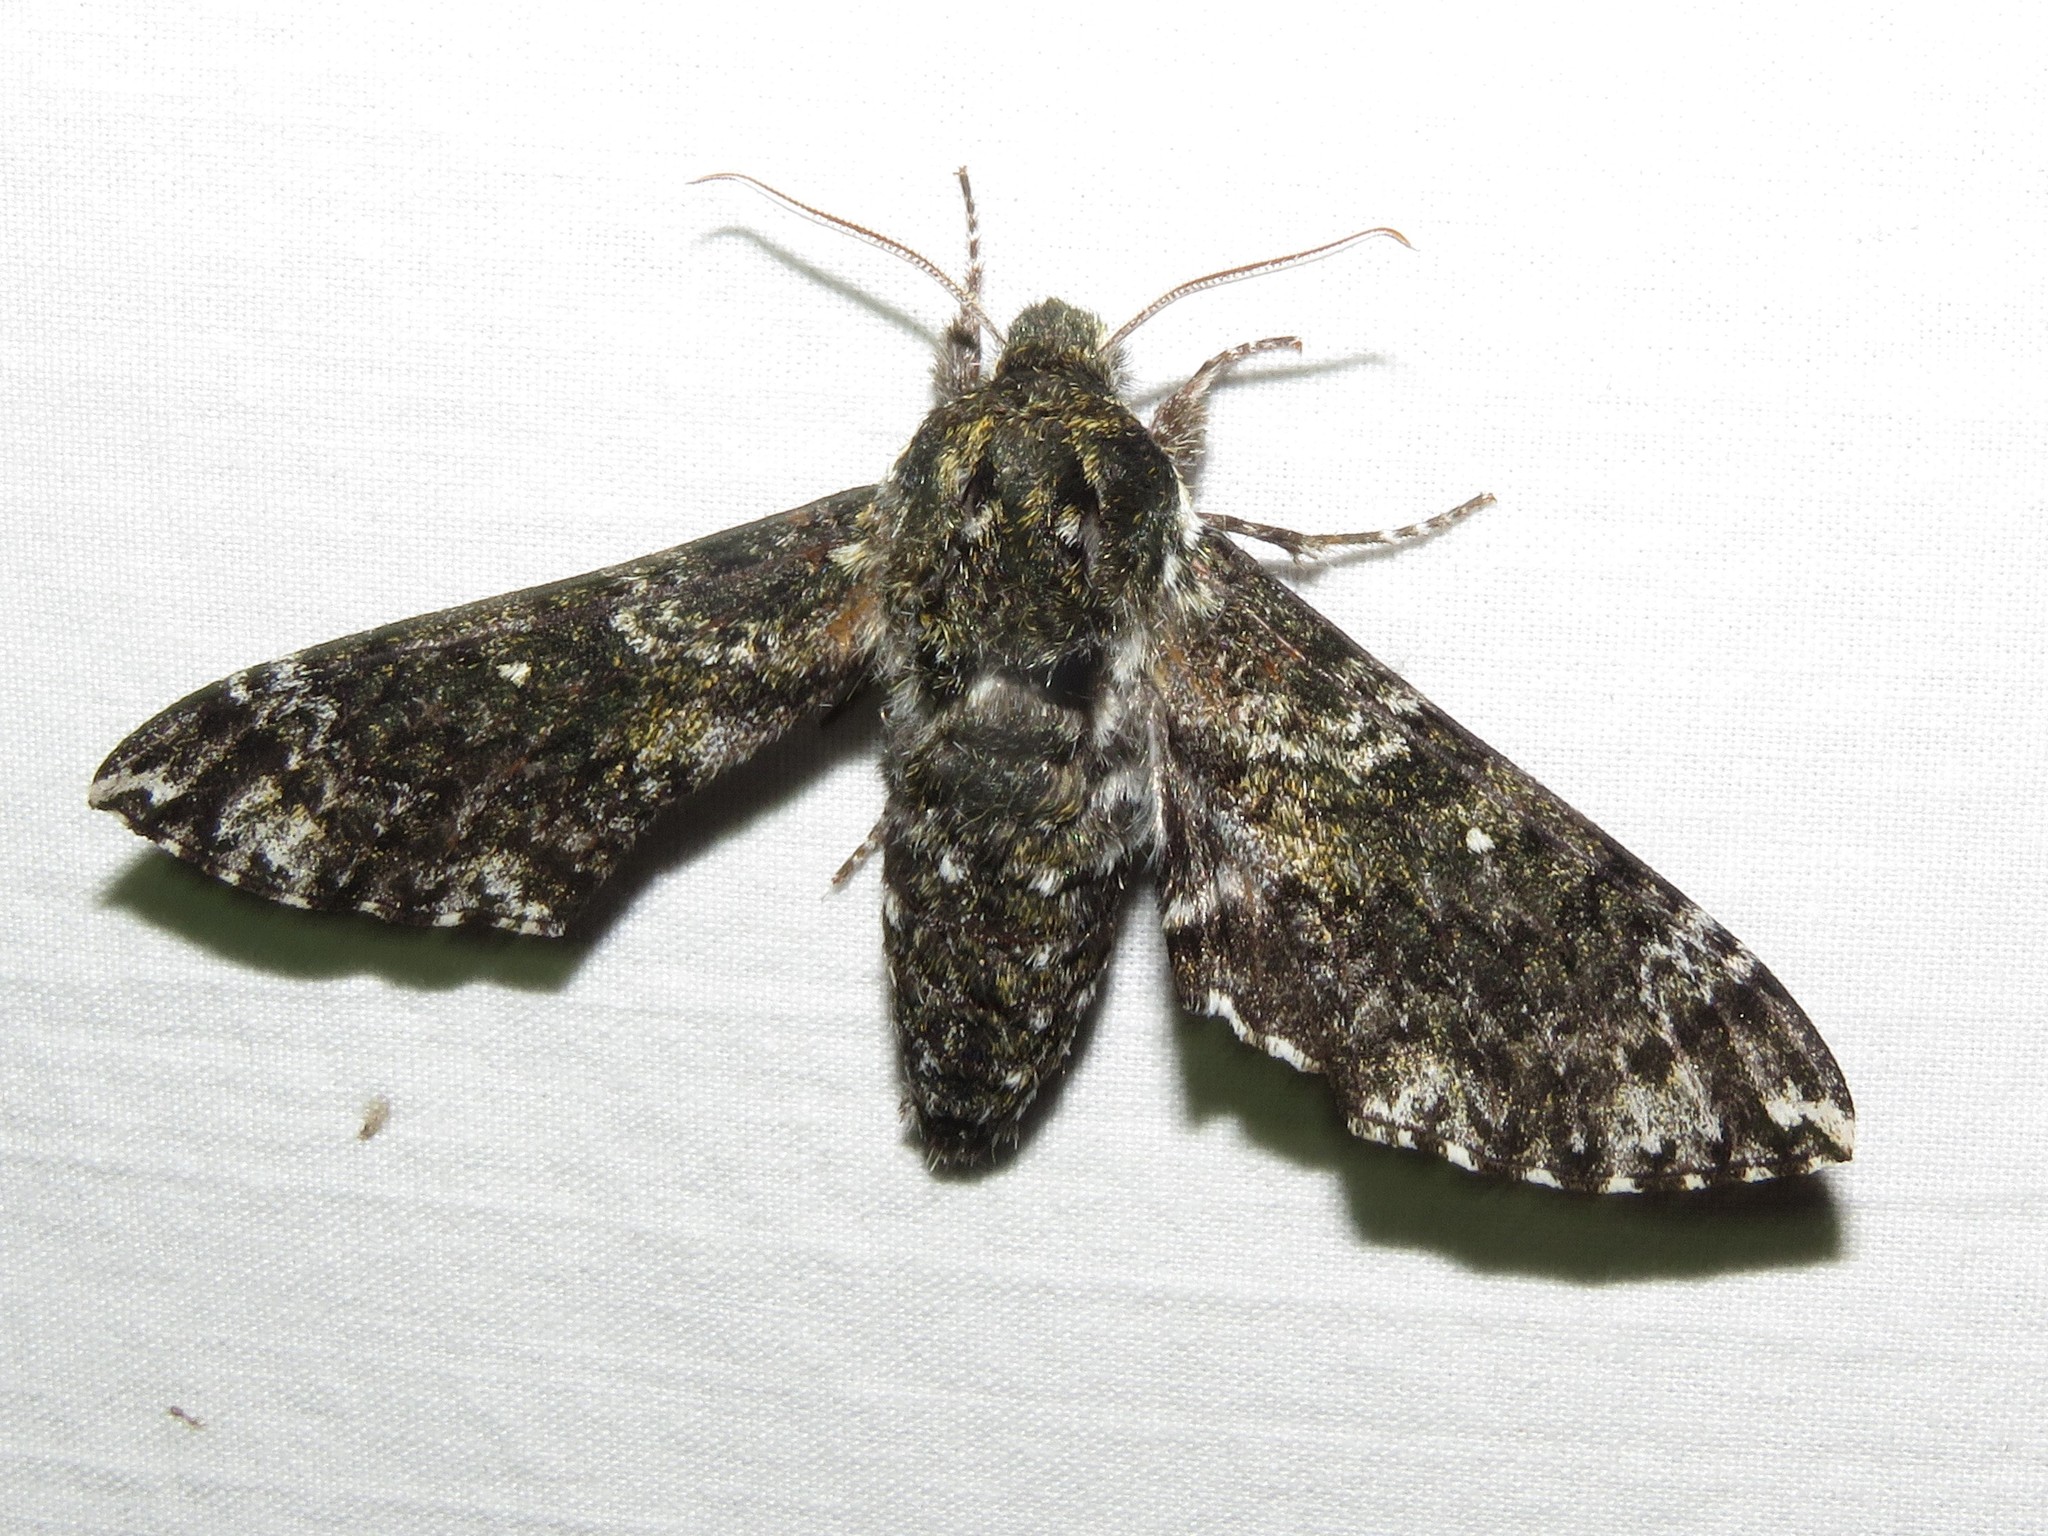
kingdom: Animalia
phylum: Arthropoda
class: Insecta
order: Lepidoptera
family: Sphingidae
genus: Dolba
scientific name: Dolba hyloeus
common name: Pawpaw sphinx
